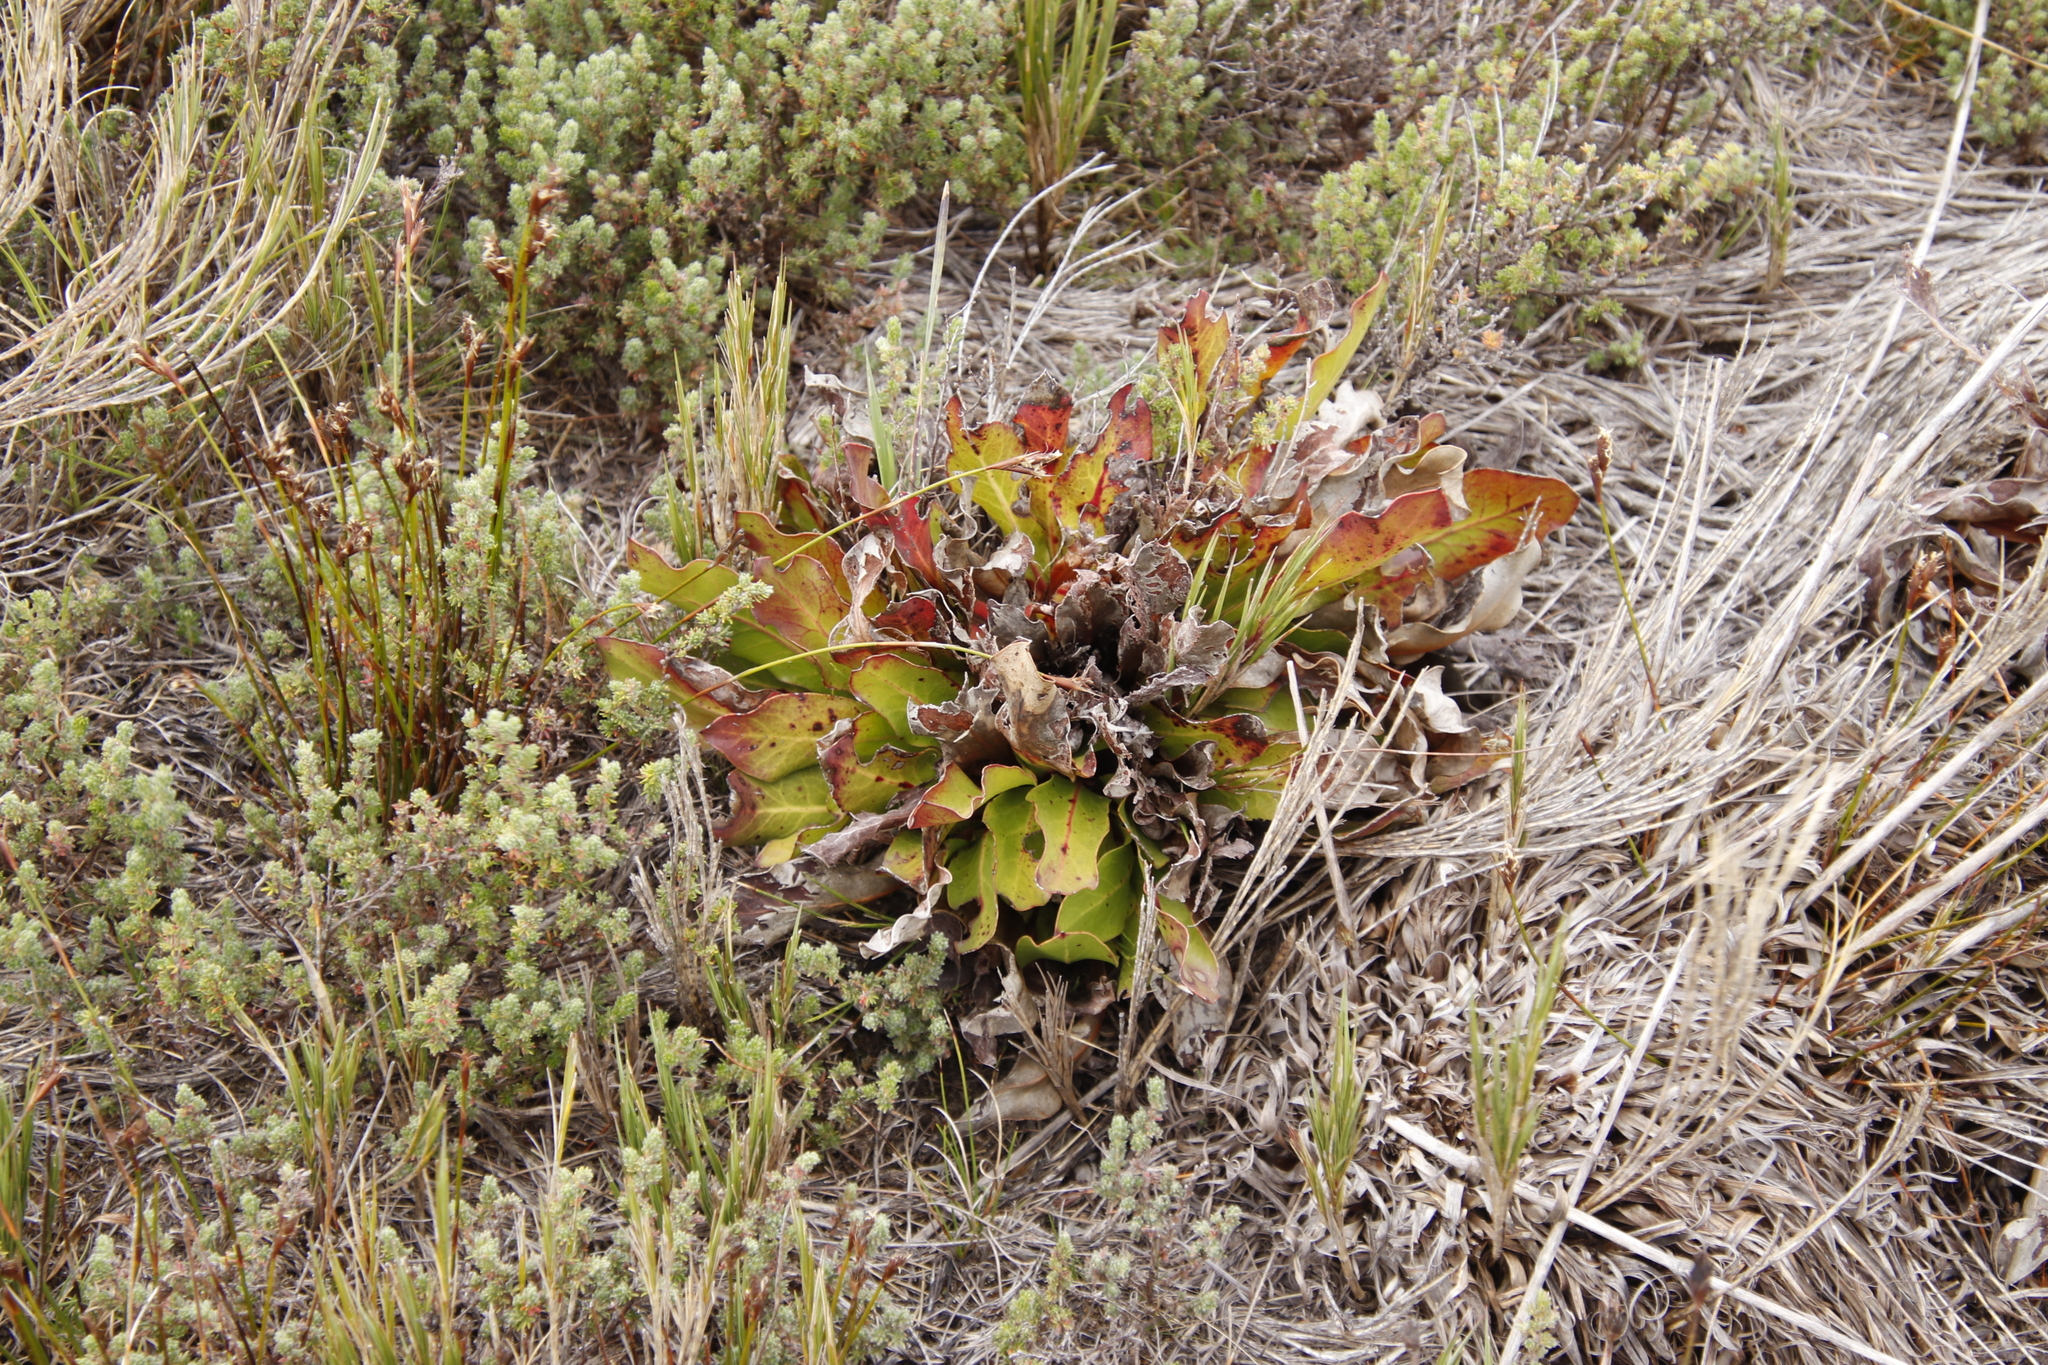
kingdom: Plantae
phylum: Tracheophyta
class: Magnoliopsida
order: Proteales
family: Proteaceae
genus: Protea
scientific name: Protea caespitosa
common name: Bishop sugarbush
